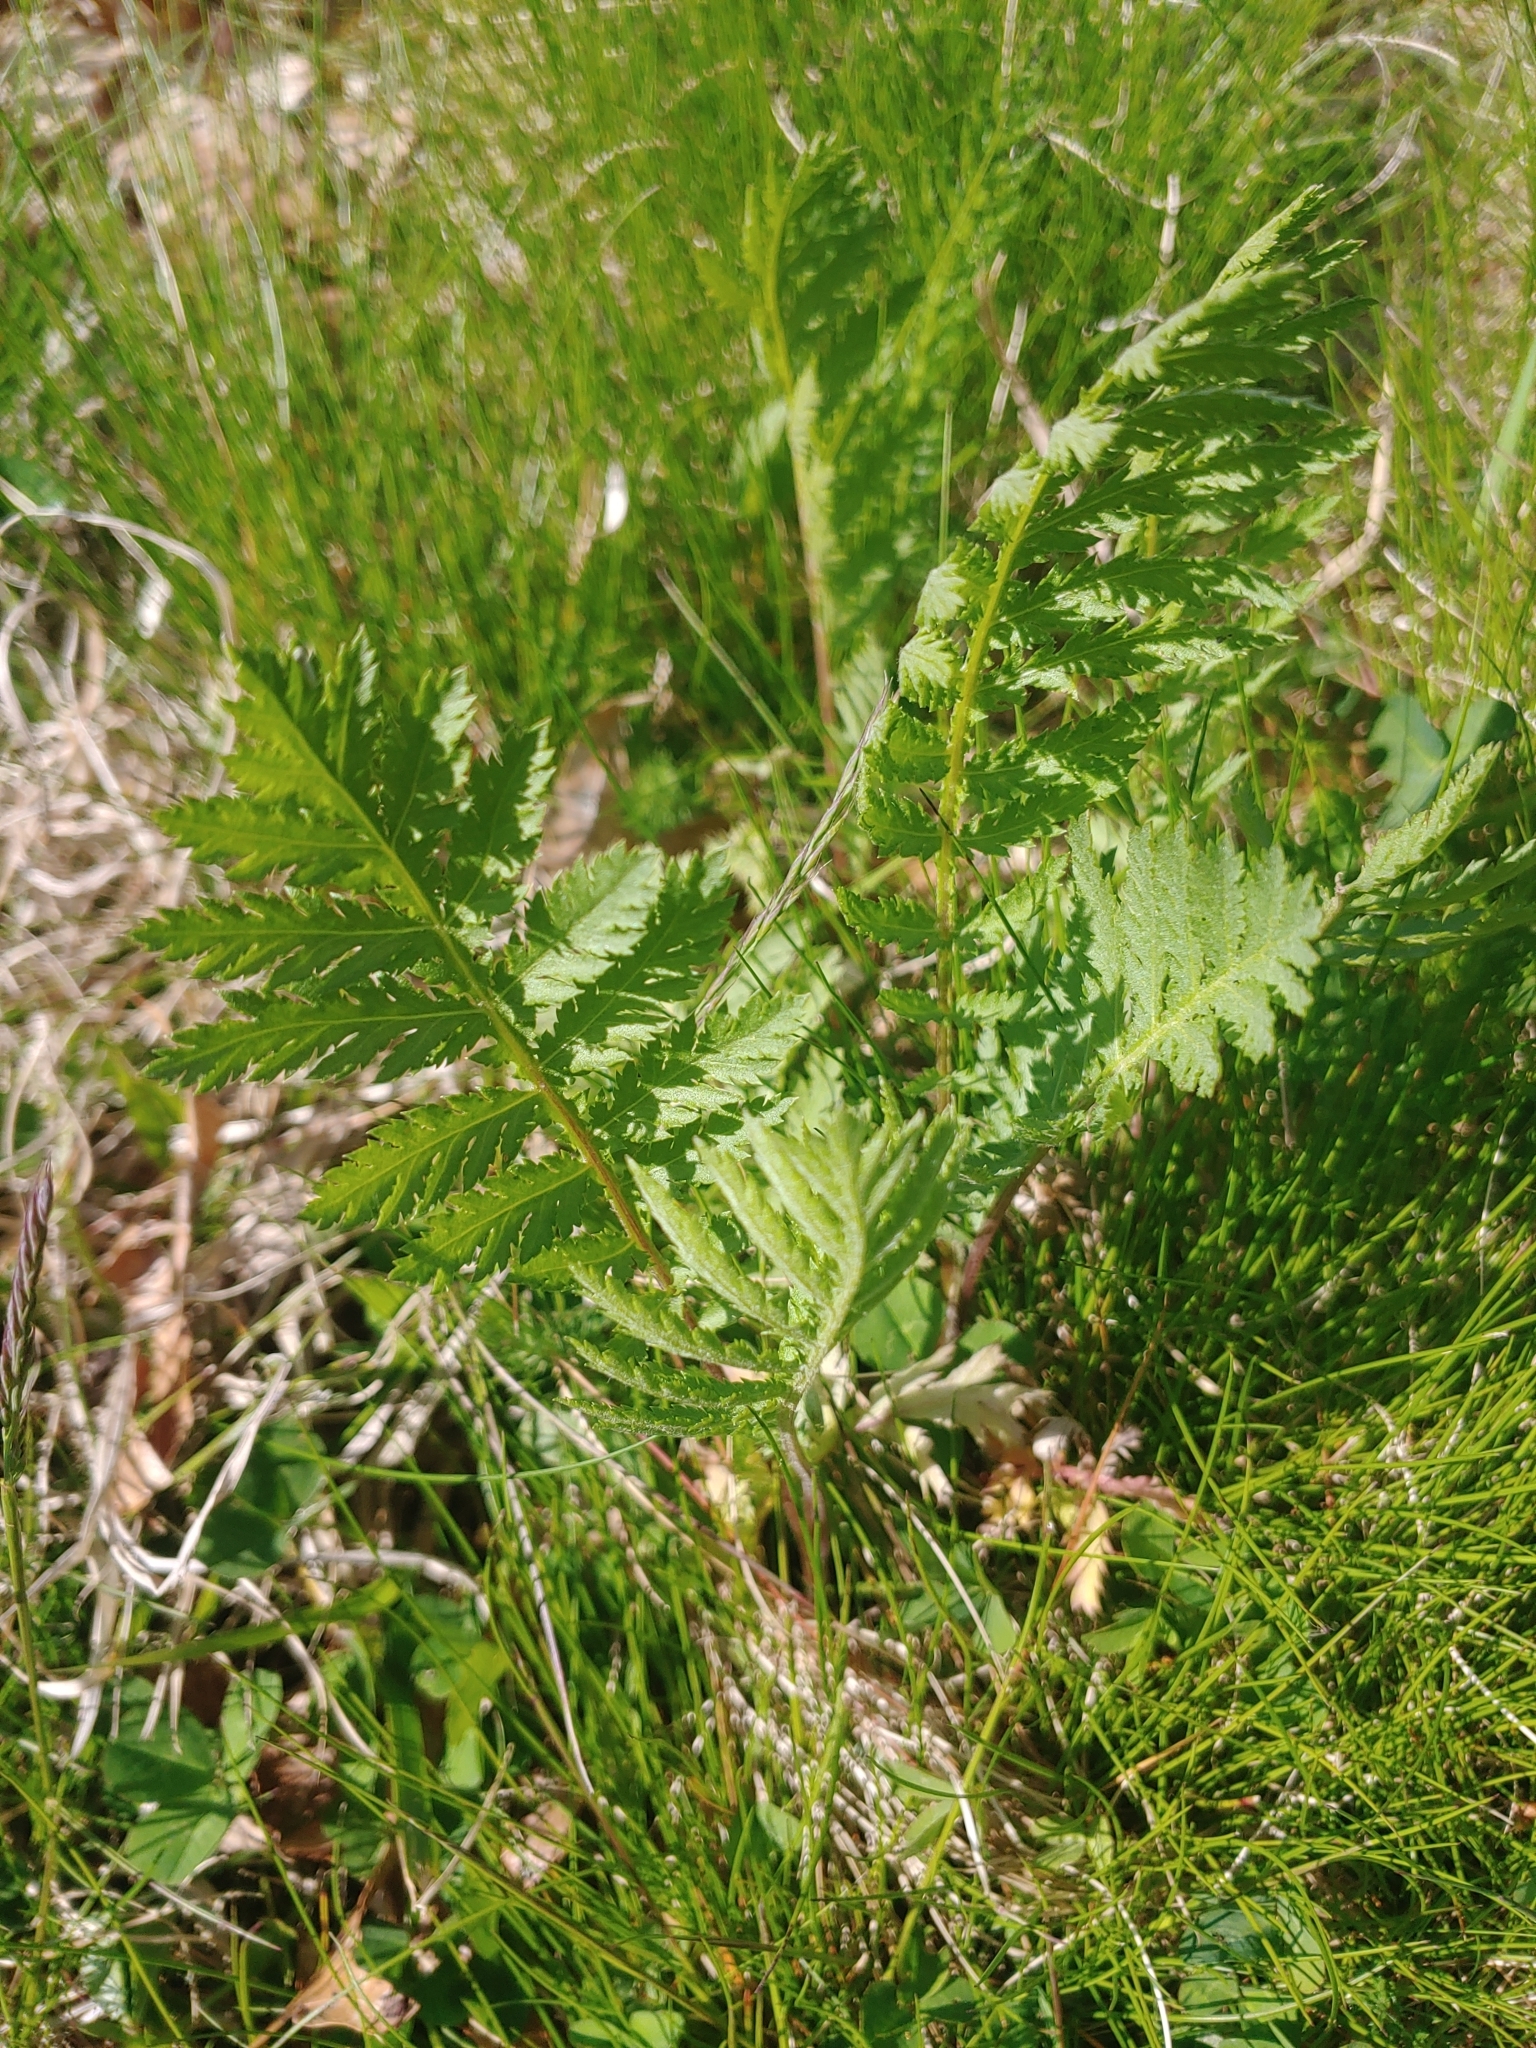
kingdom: Plantae
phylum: Tracheophyta
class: Magnoliopsida
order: Asterales
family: Asteraceae
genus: Tanacetum
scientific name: Tanacetum vulgare
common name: Common tansy
